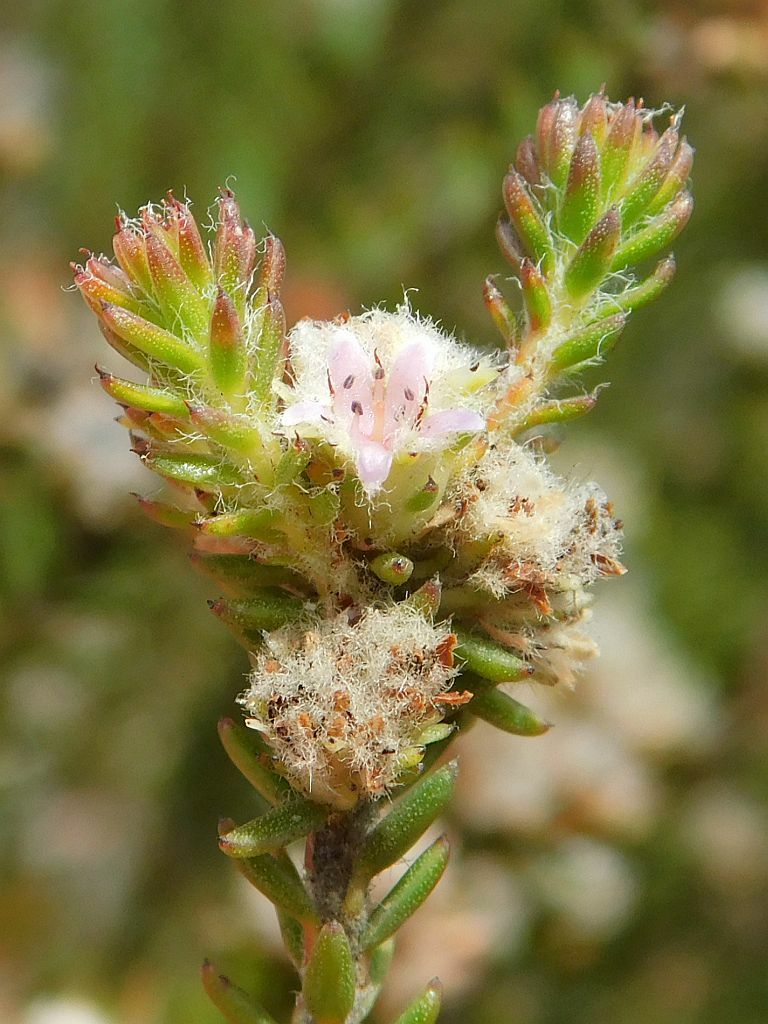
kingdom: Plantae
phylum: Tracheophyta
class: Magnoliopsida
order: Bruniales
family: Bruniaceae
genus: Staavia
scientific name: Staavia capitella
